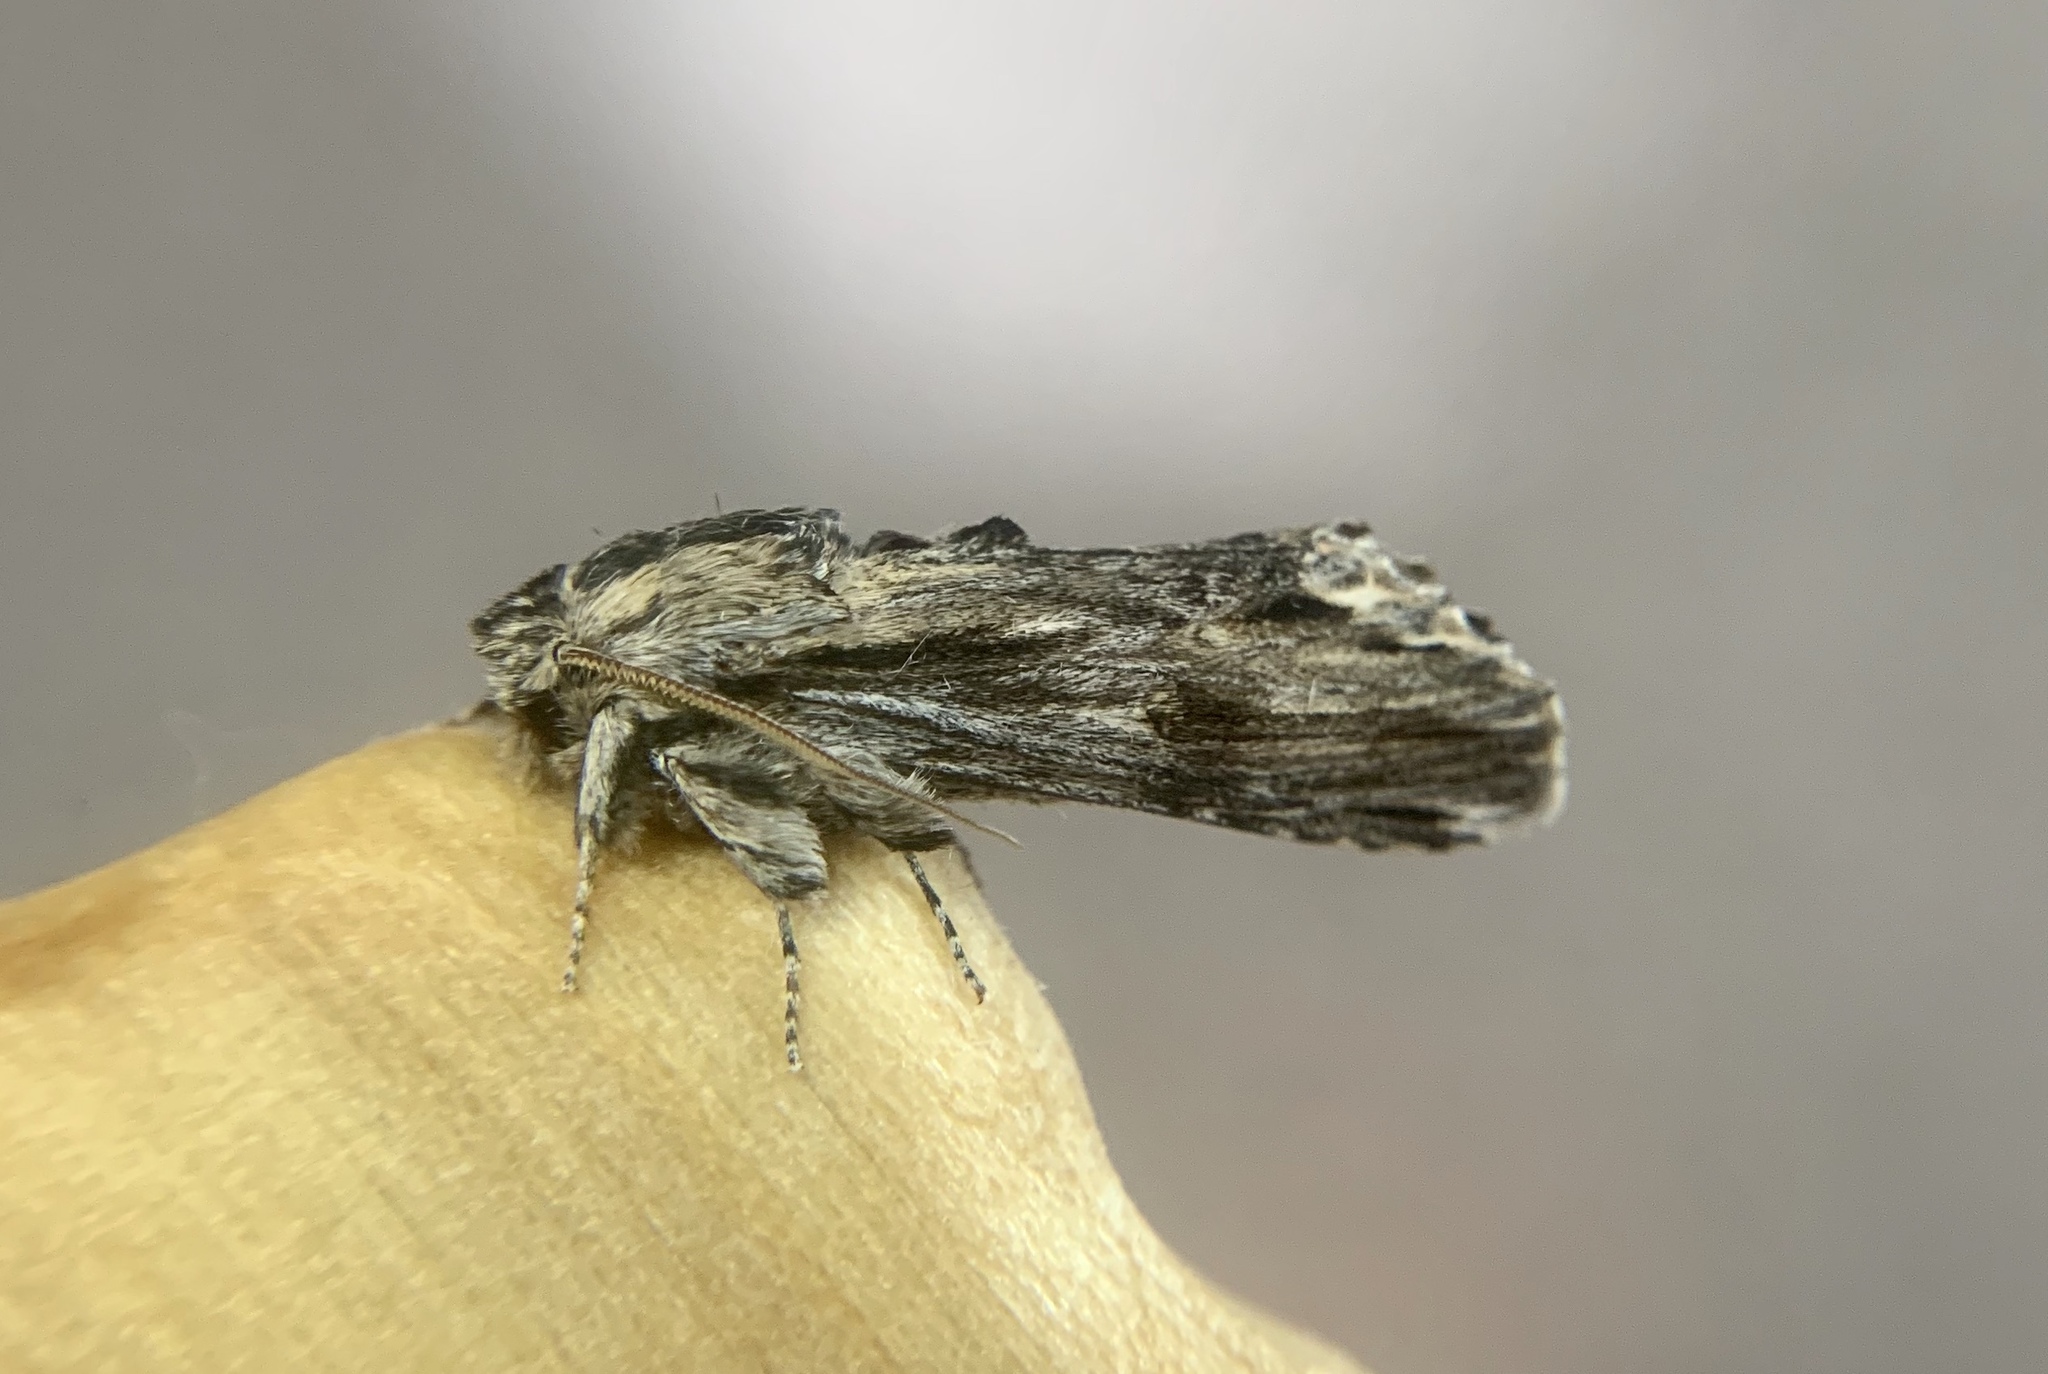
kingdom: Animalia
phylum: Arthropoda
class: Insecta
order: Lepidoptera
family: Notodontidae
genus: Oligocentria
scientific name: Oligocentria Ianassa lignicolor
